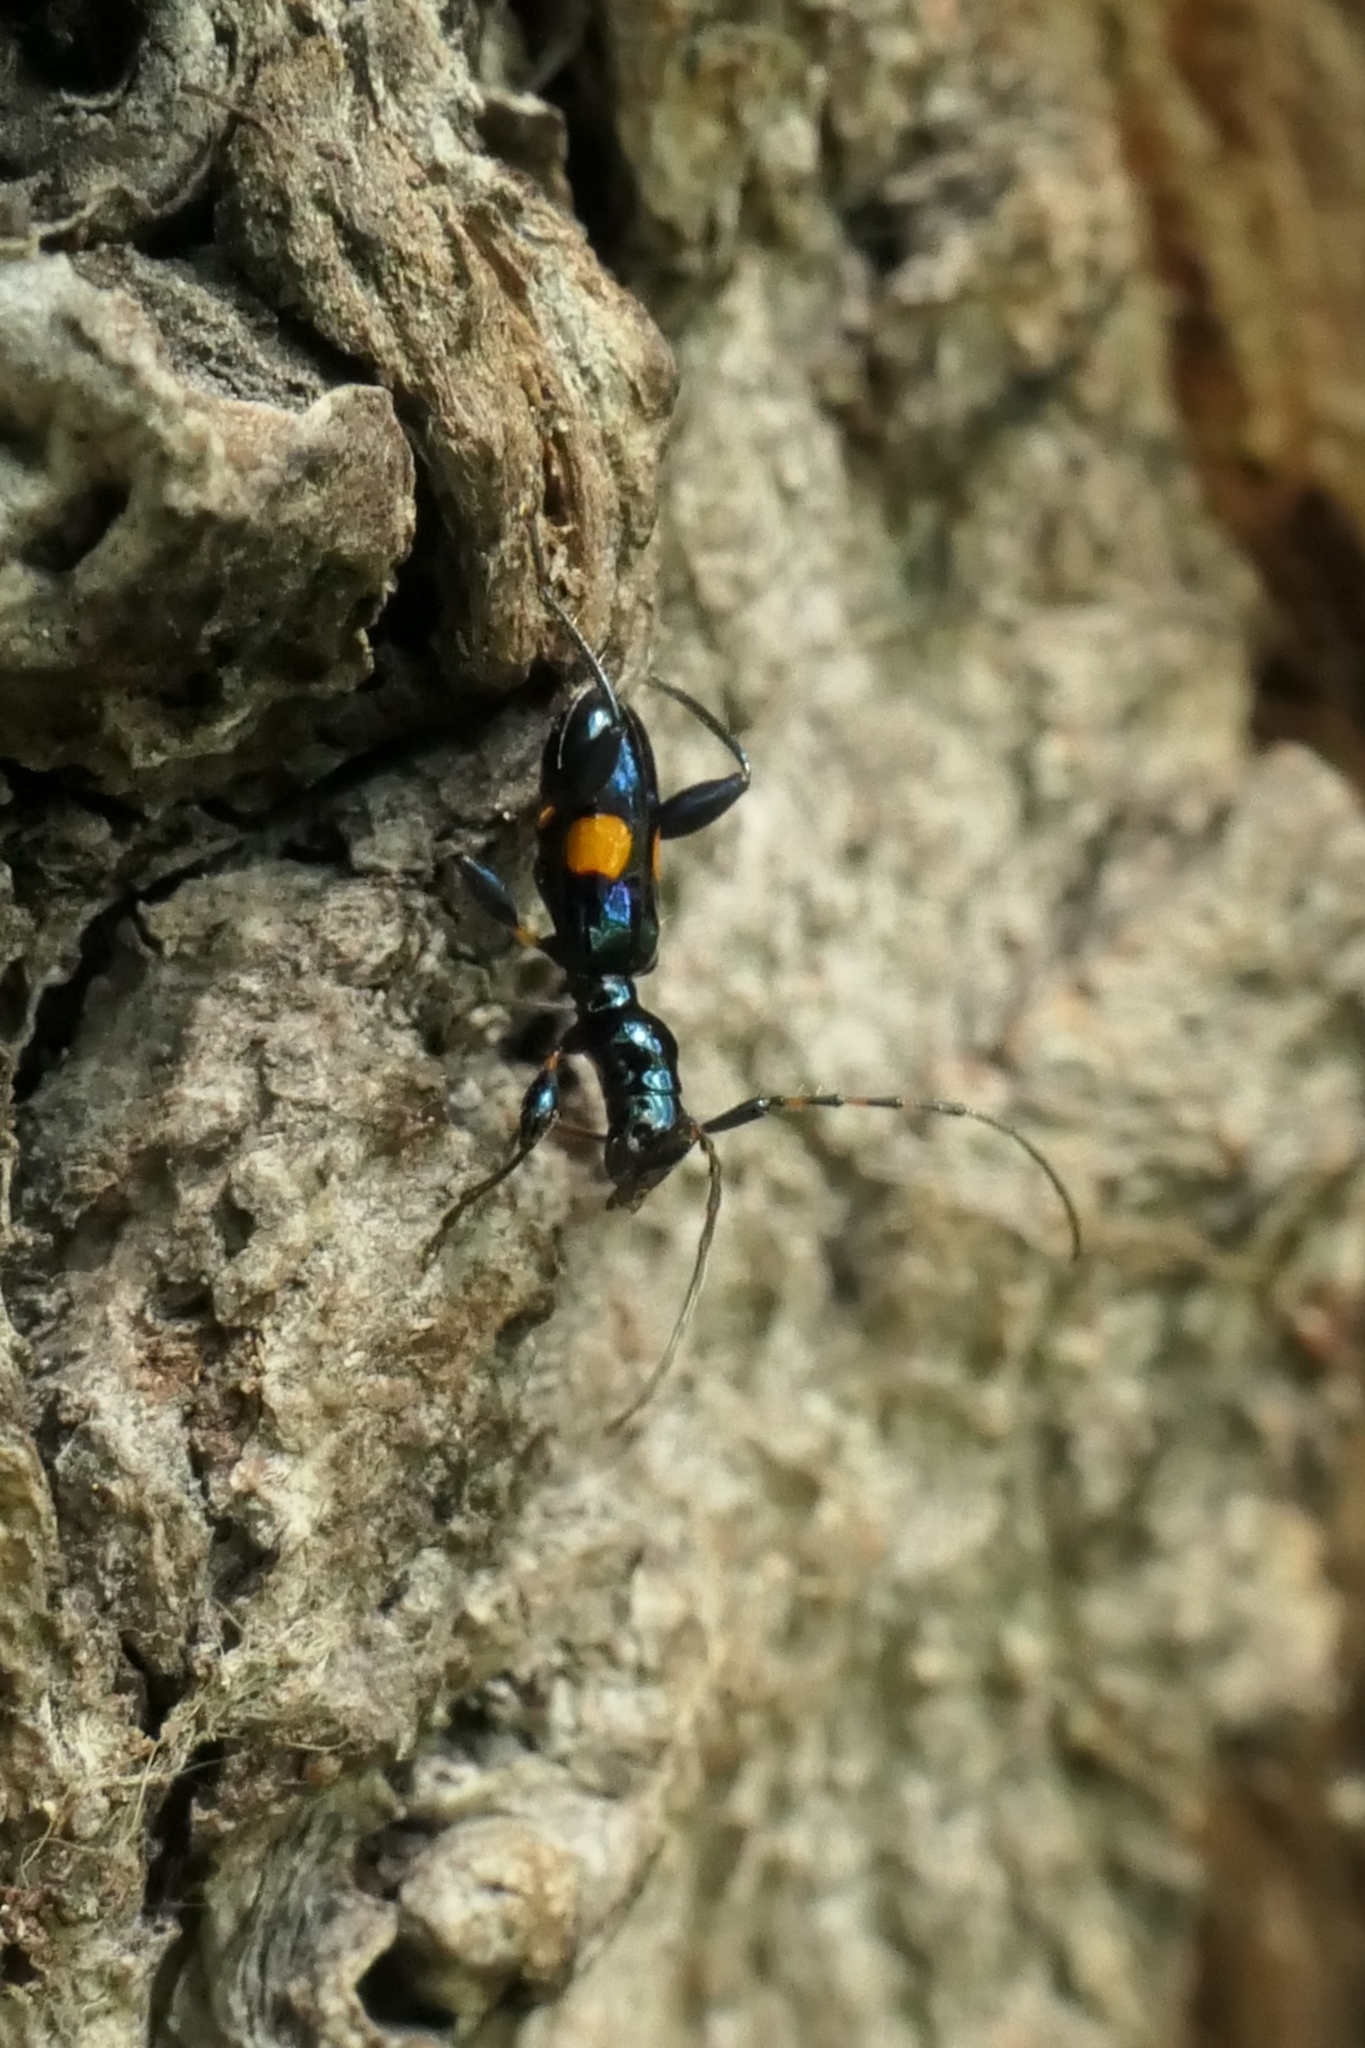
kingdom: Animalia
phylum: Arthropoda
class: Insecta
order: Coleoptera
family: Cerambycidae
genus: Zorion
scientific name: Zorion guttigerum
